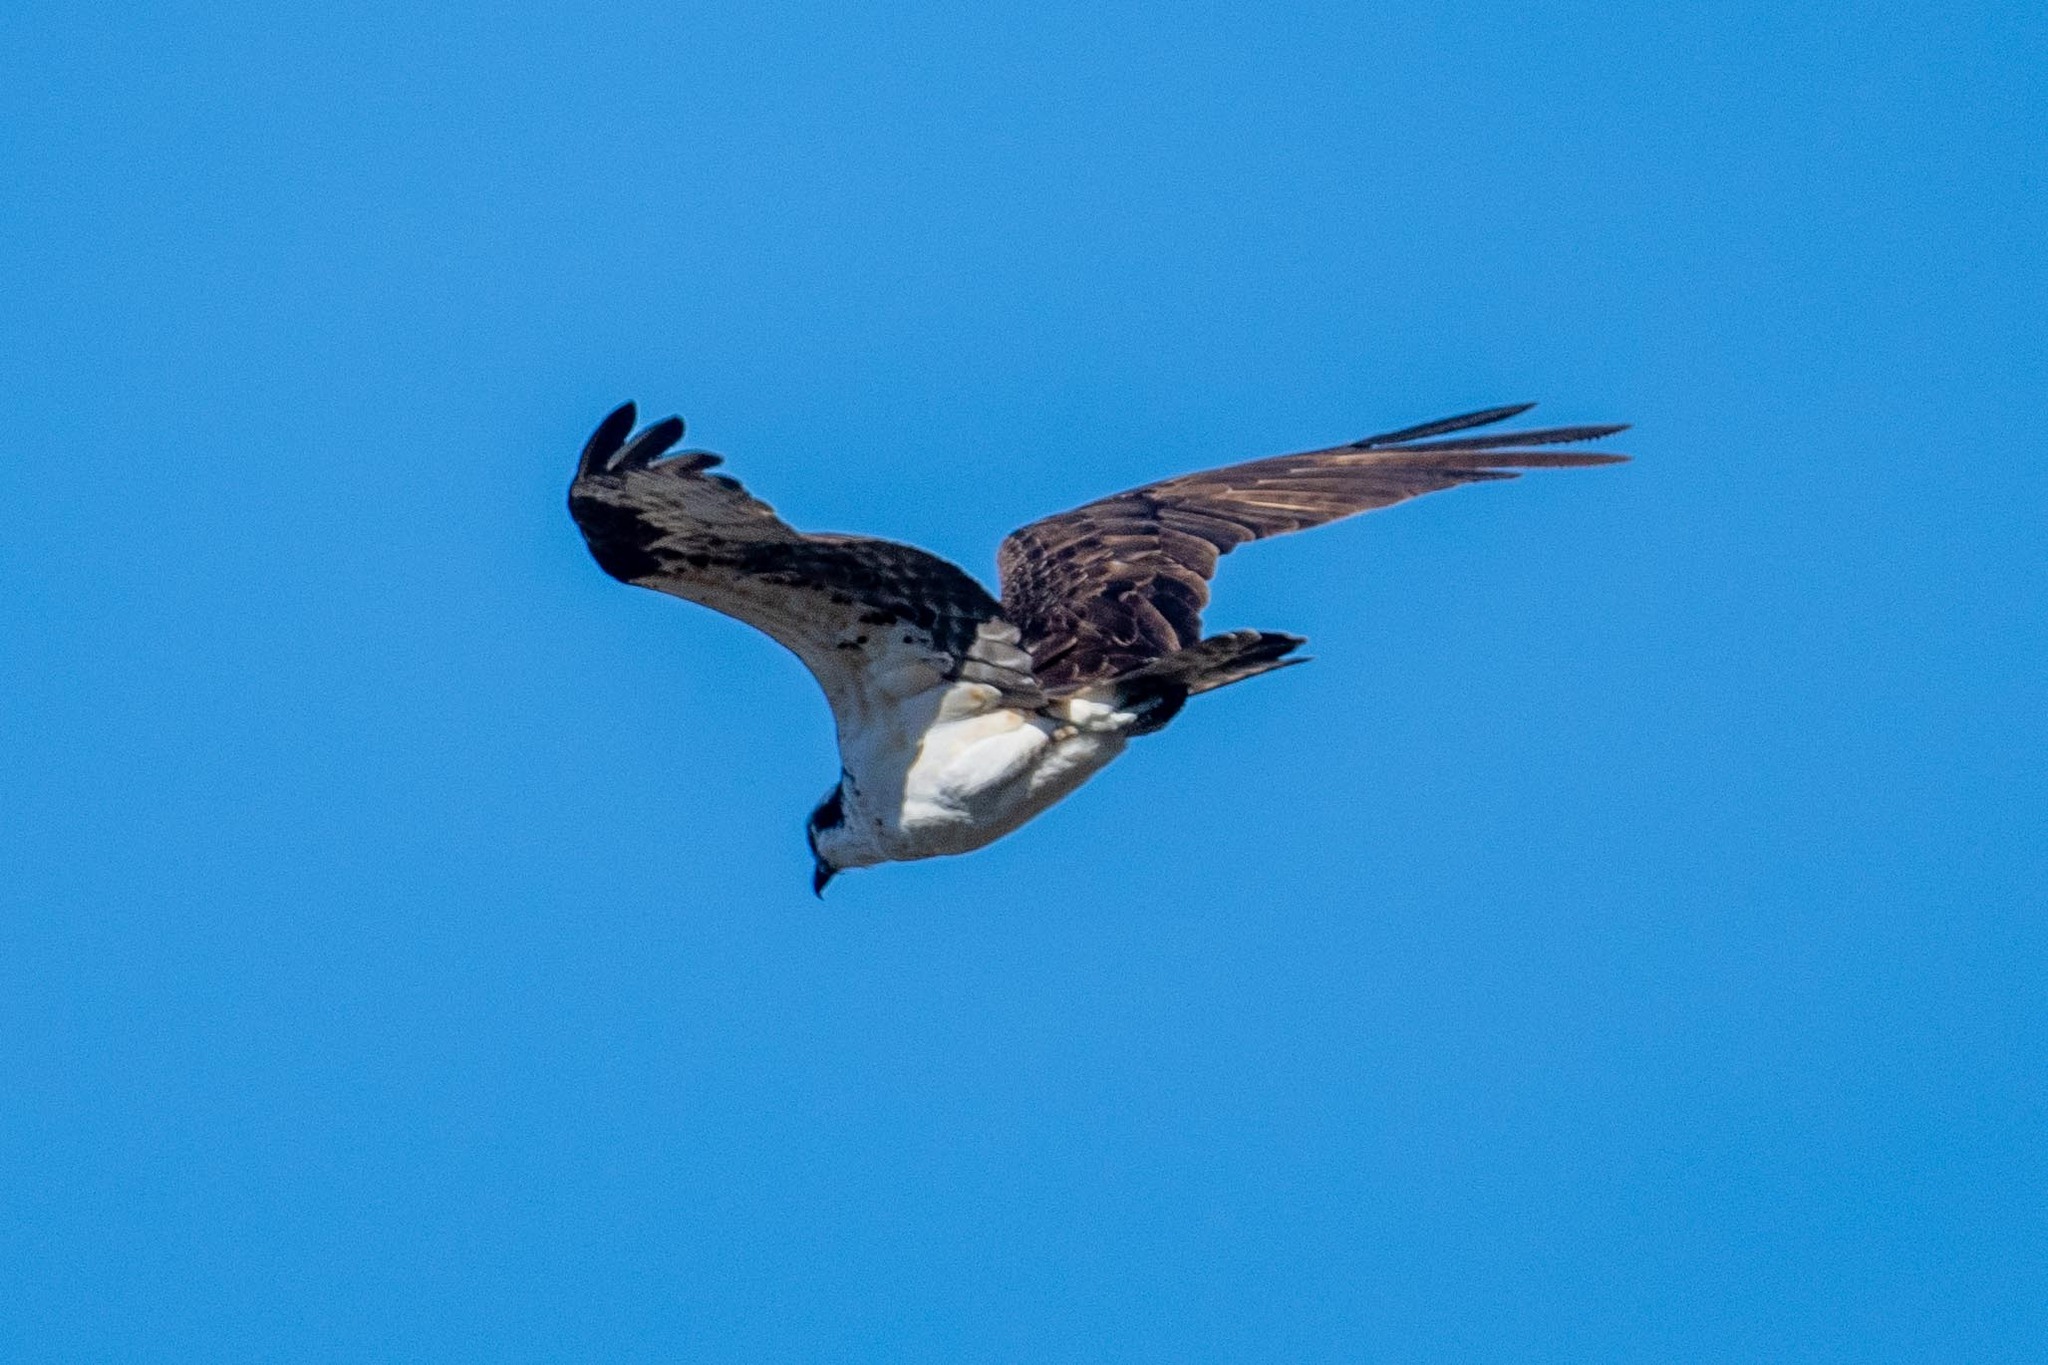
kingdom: Animalia
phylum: Chordata
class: Aves
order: Accipitriformes
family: Pandionidae
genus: Pandion
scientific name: Pandion haliaetus
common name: Osprey
